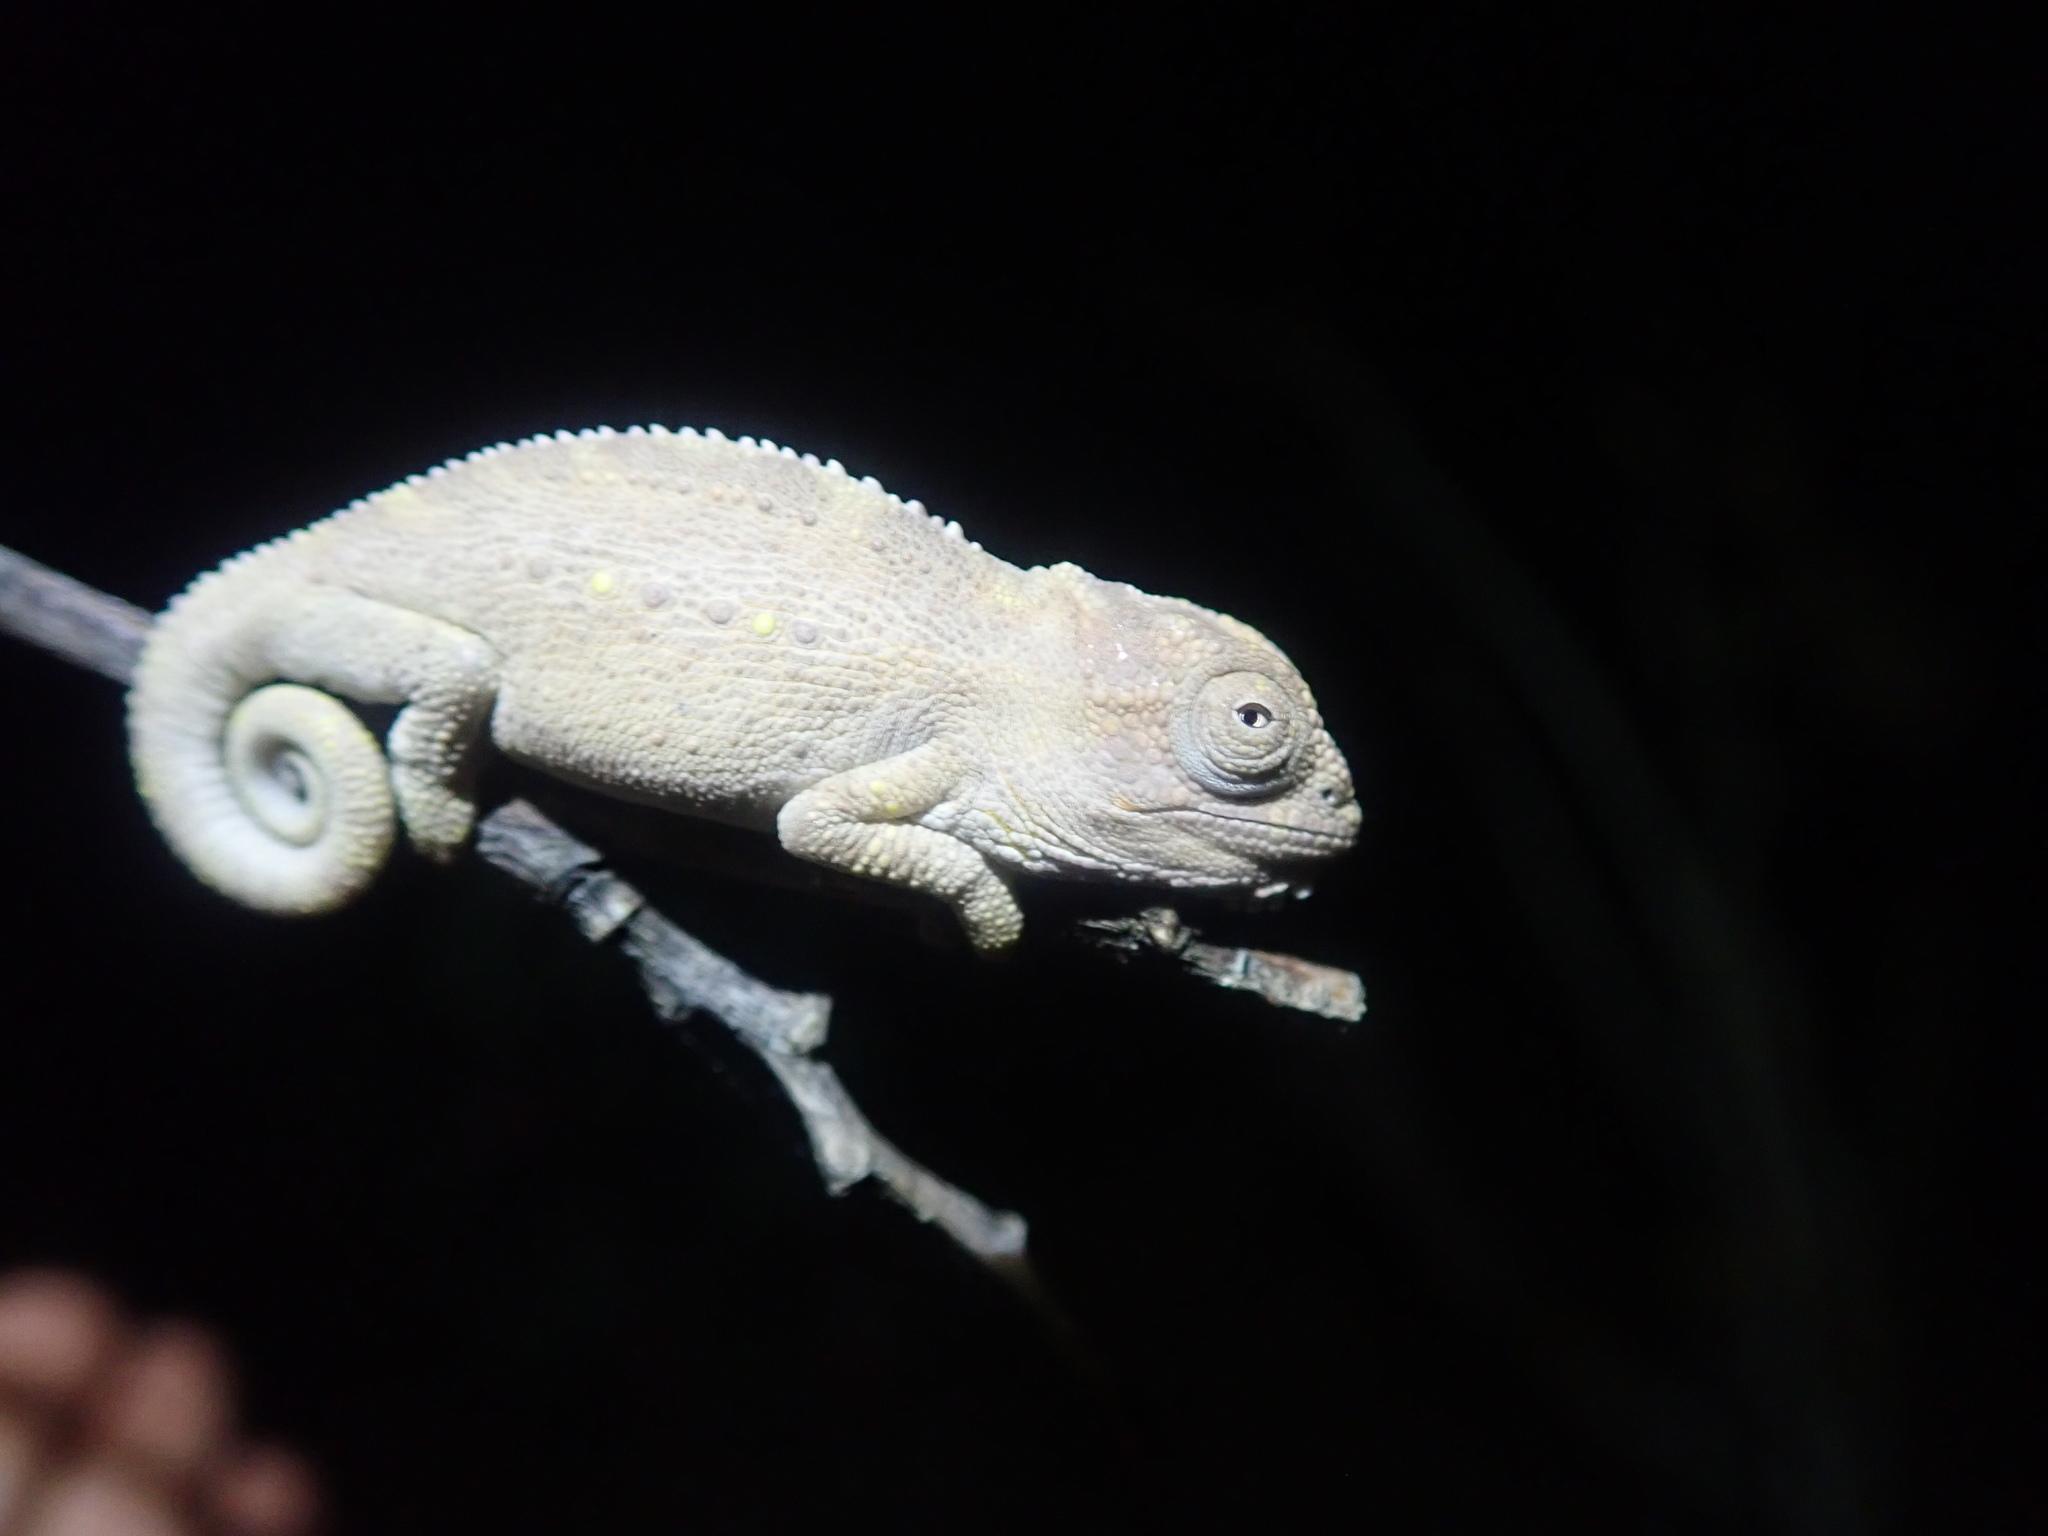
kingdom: Animalia
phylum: Chordata
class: Squamata
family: Chamaeleonidae
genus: Bradypodion
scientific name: Bradypodion pumilum
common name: Cape dwarf chameleon
